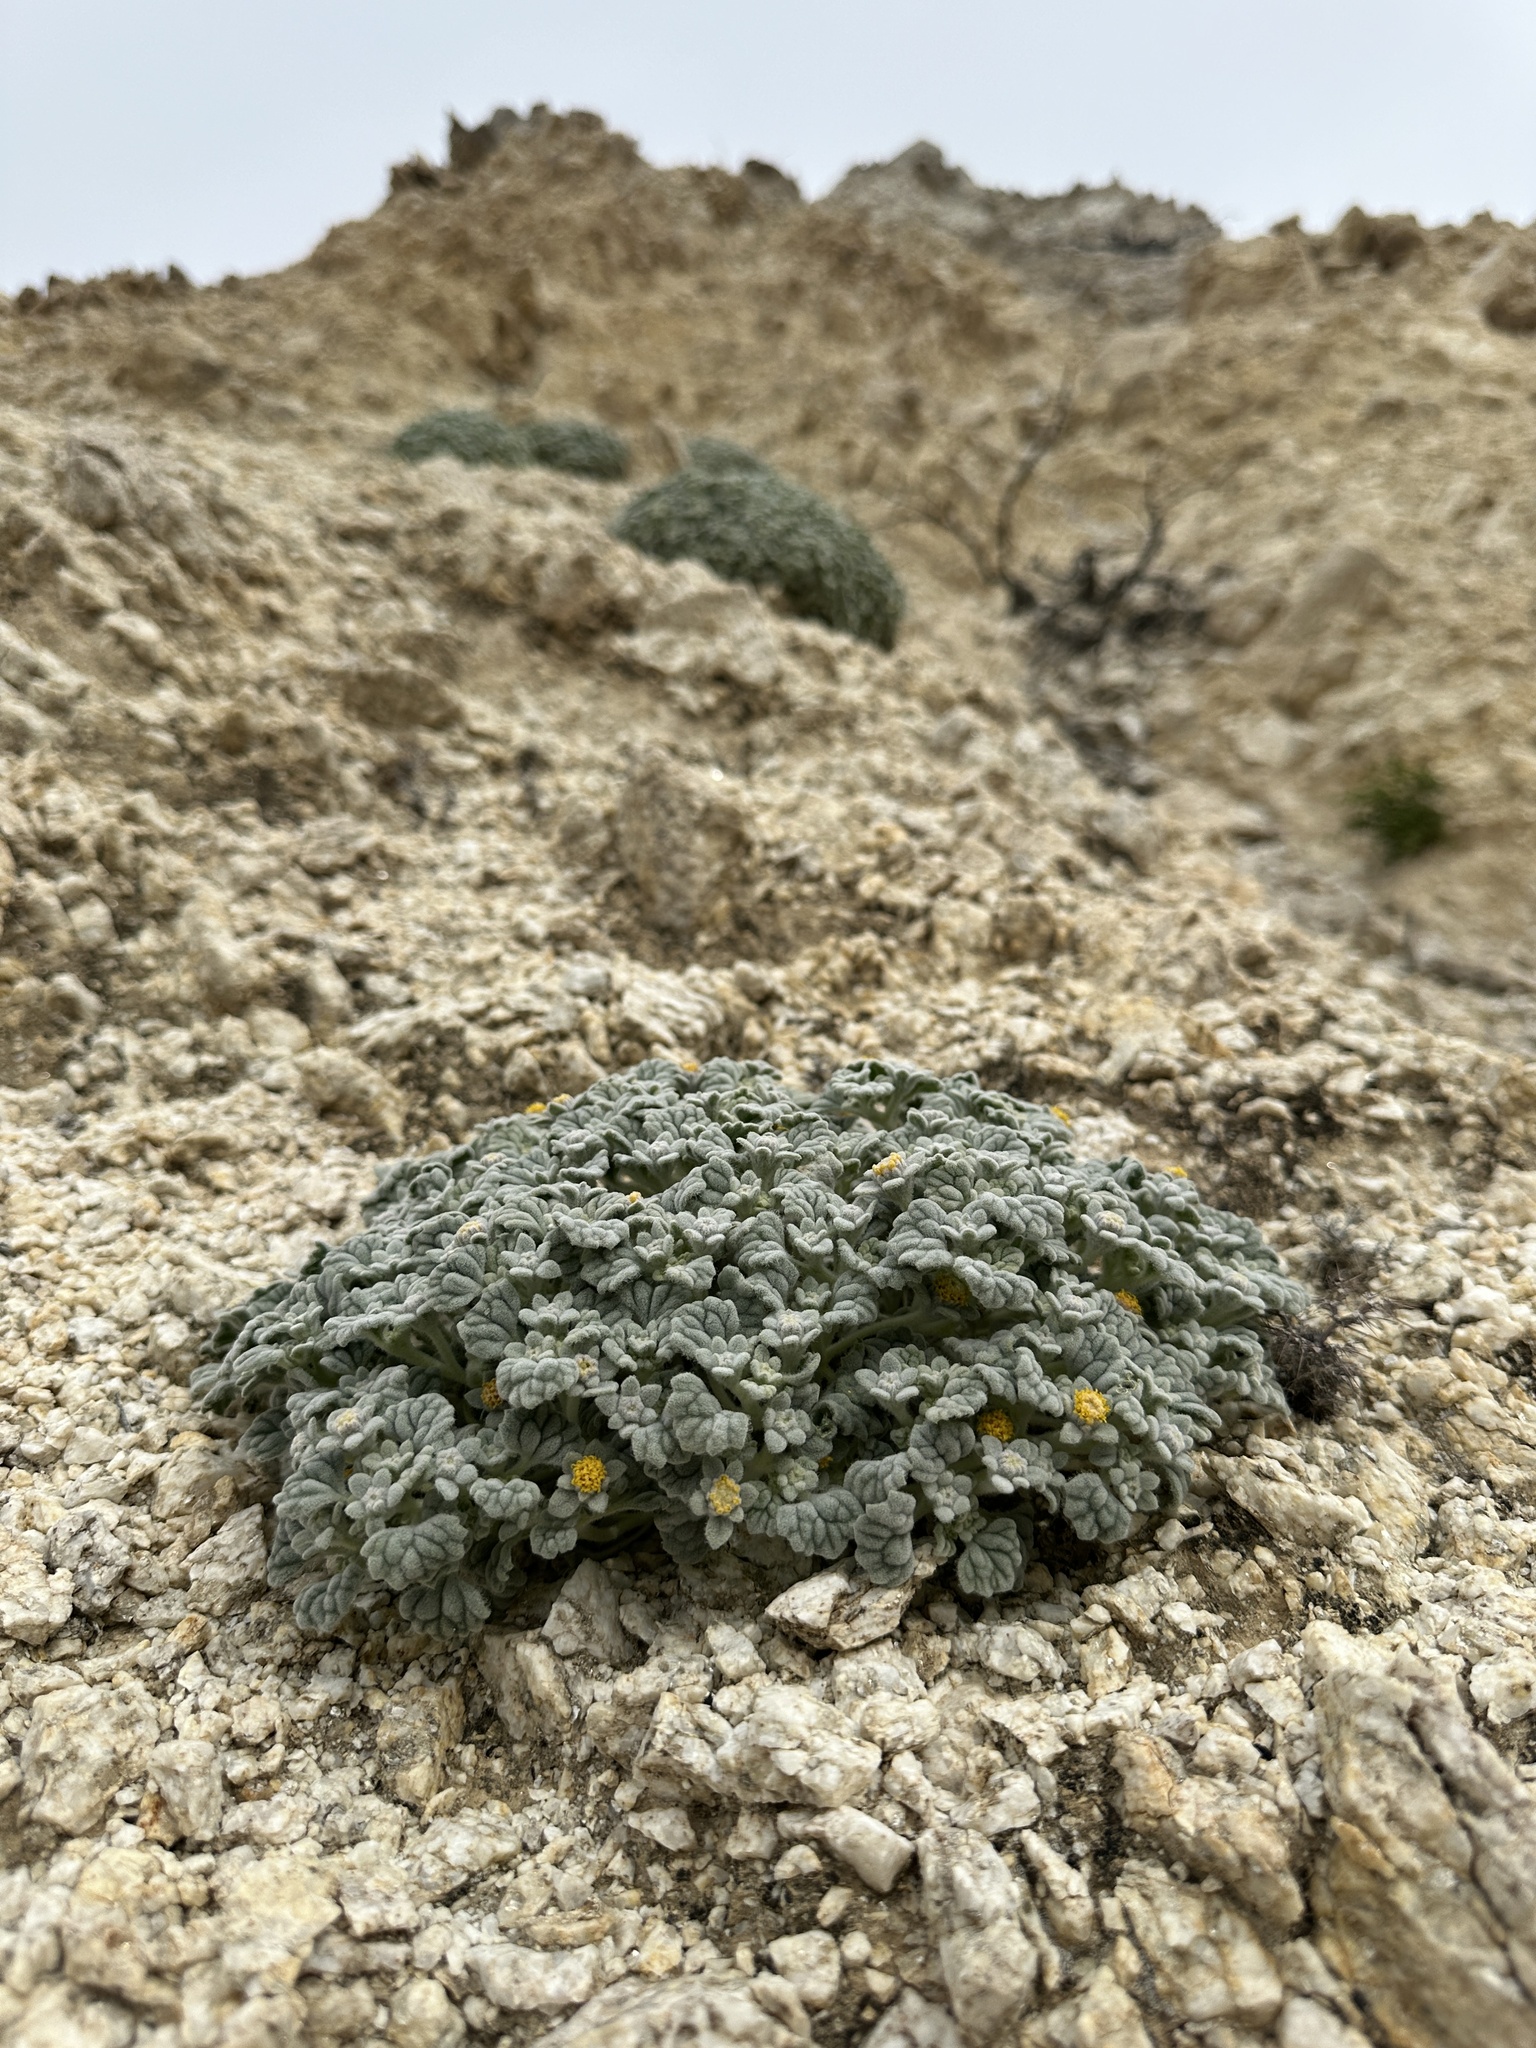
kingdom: Plantae
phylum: Tracheophyta
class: Magnoliopsida
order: Asterales
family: Asteraceae
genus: Psathyrotes
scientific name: Psathyrotes ramosissima
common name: Turtleback
